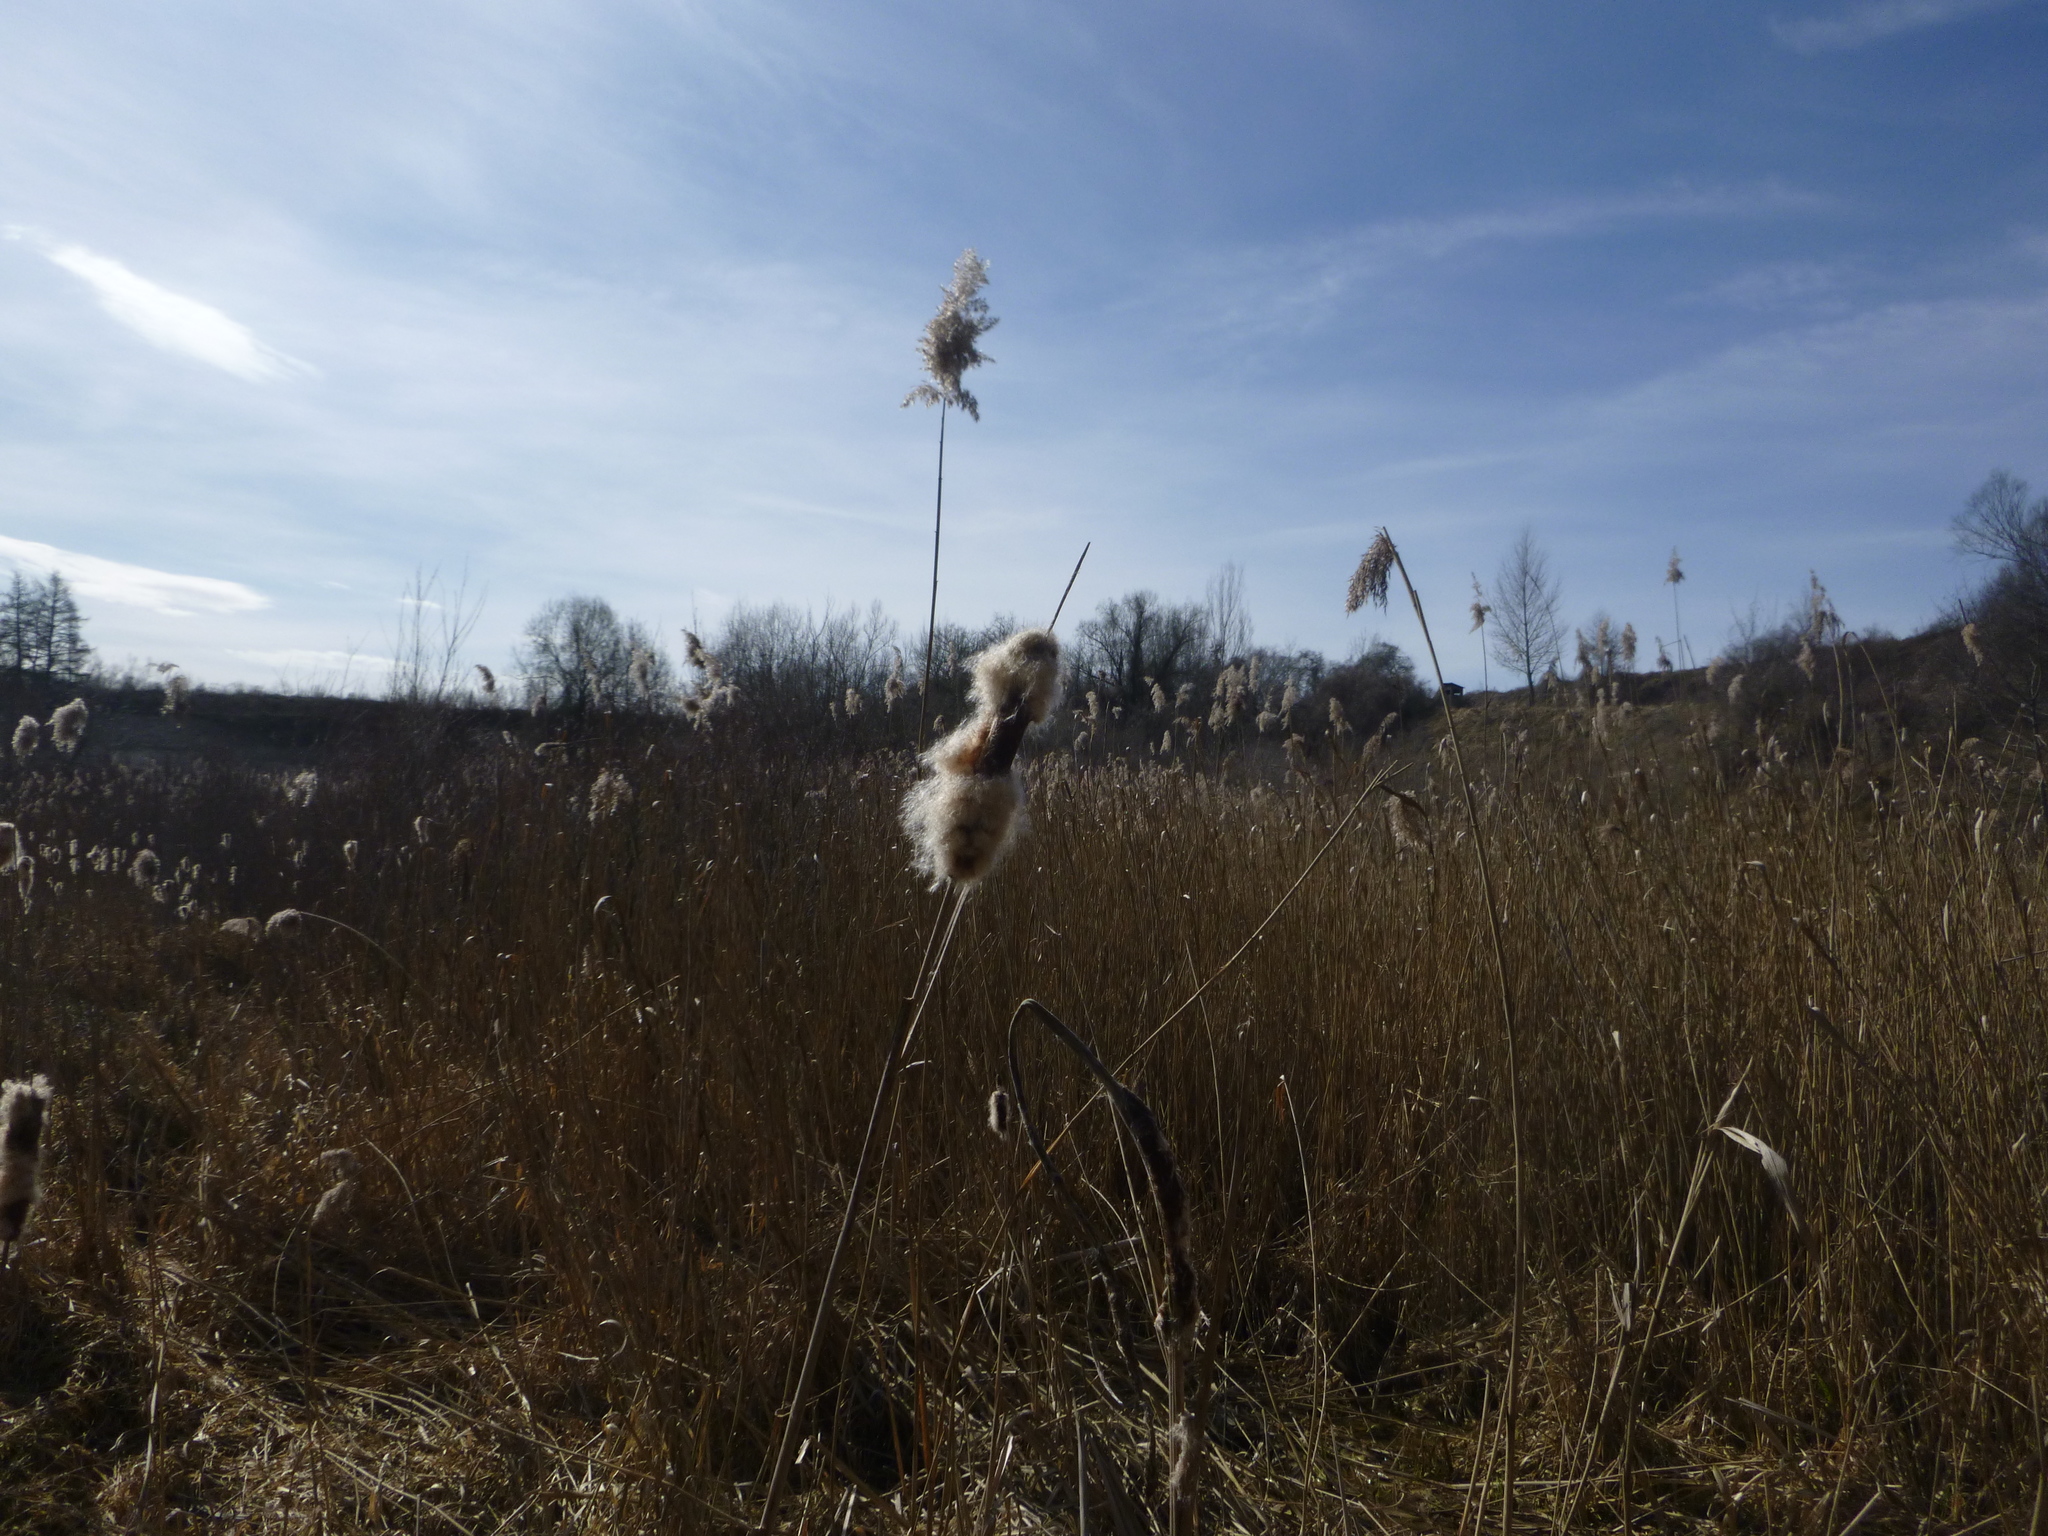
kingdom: Plantae
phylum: Tracheophyta
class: Liliopsida
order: Poales
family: Typhaceae
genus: Typha
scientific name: Typha latifolia
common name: Broadleaf cattail
